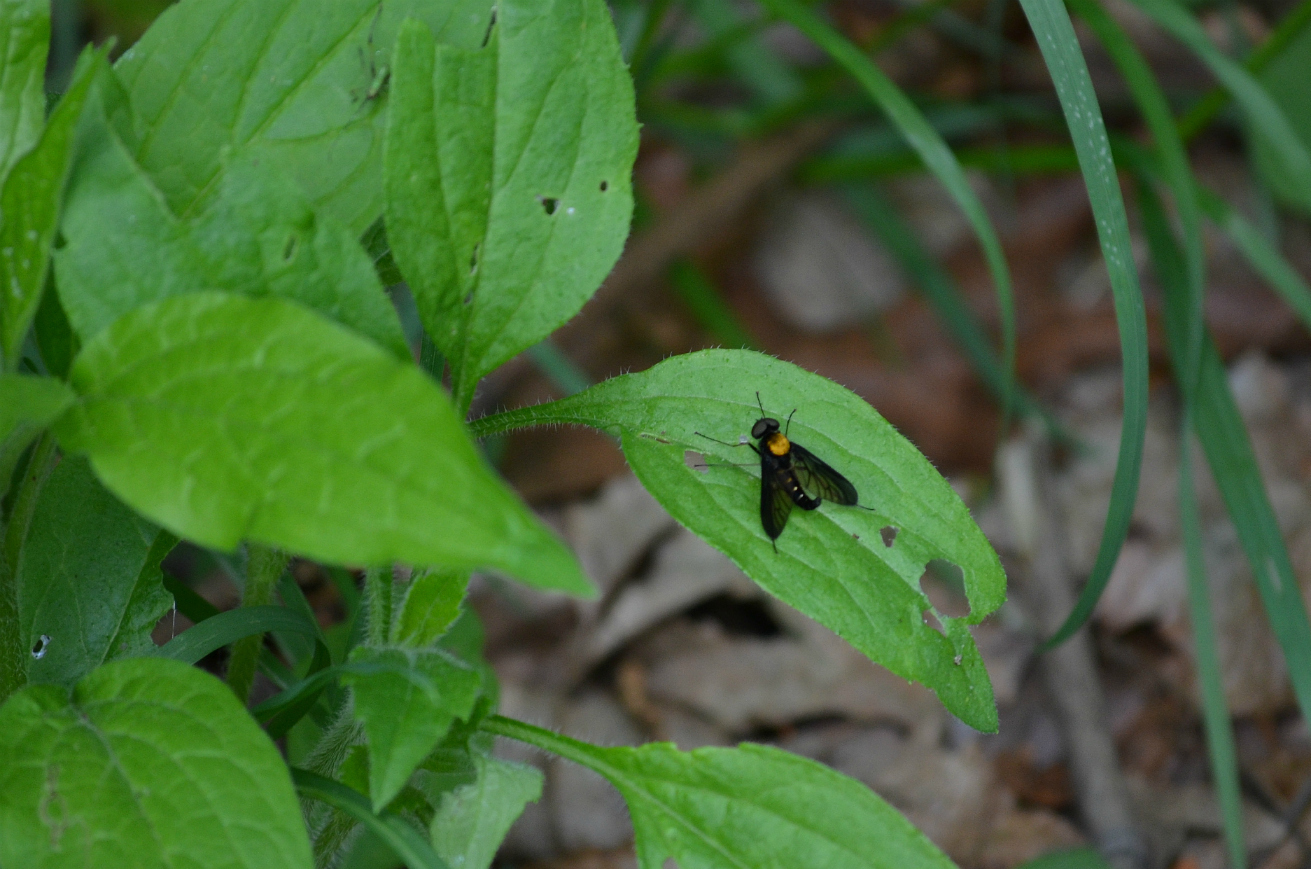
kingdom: Animalia
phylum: Arthropoda
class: Insecta
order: Diptera
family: Rhagionidae
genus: Chrysopilus
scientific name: Chrysopilus thoracicus
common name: Golden-backed snipe fly
